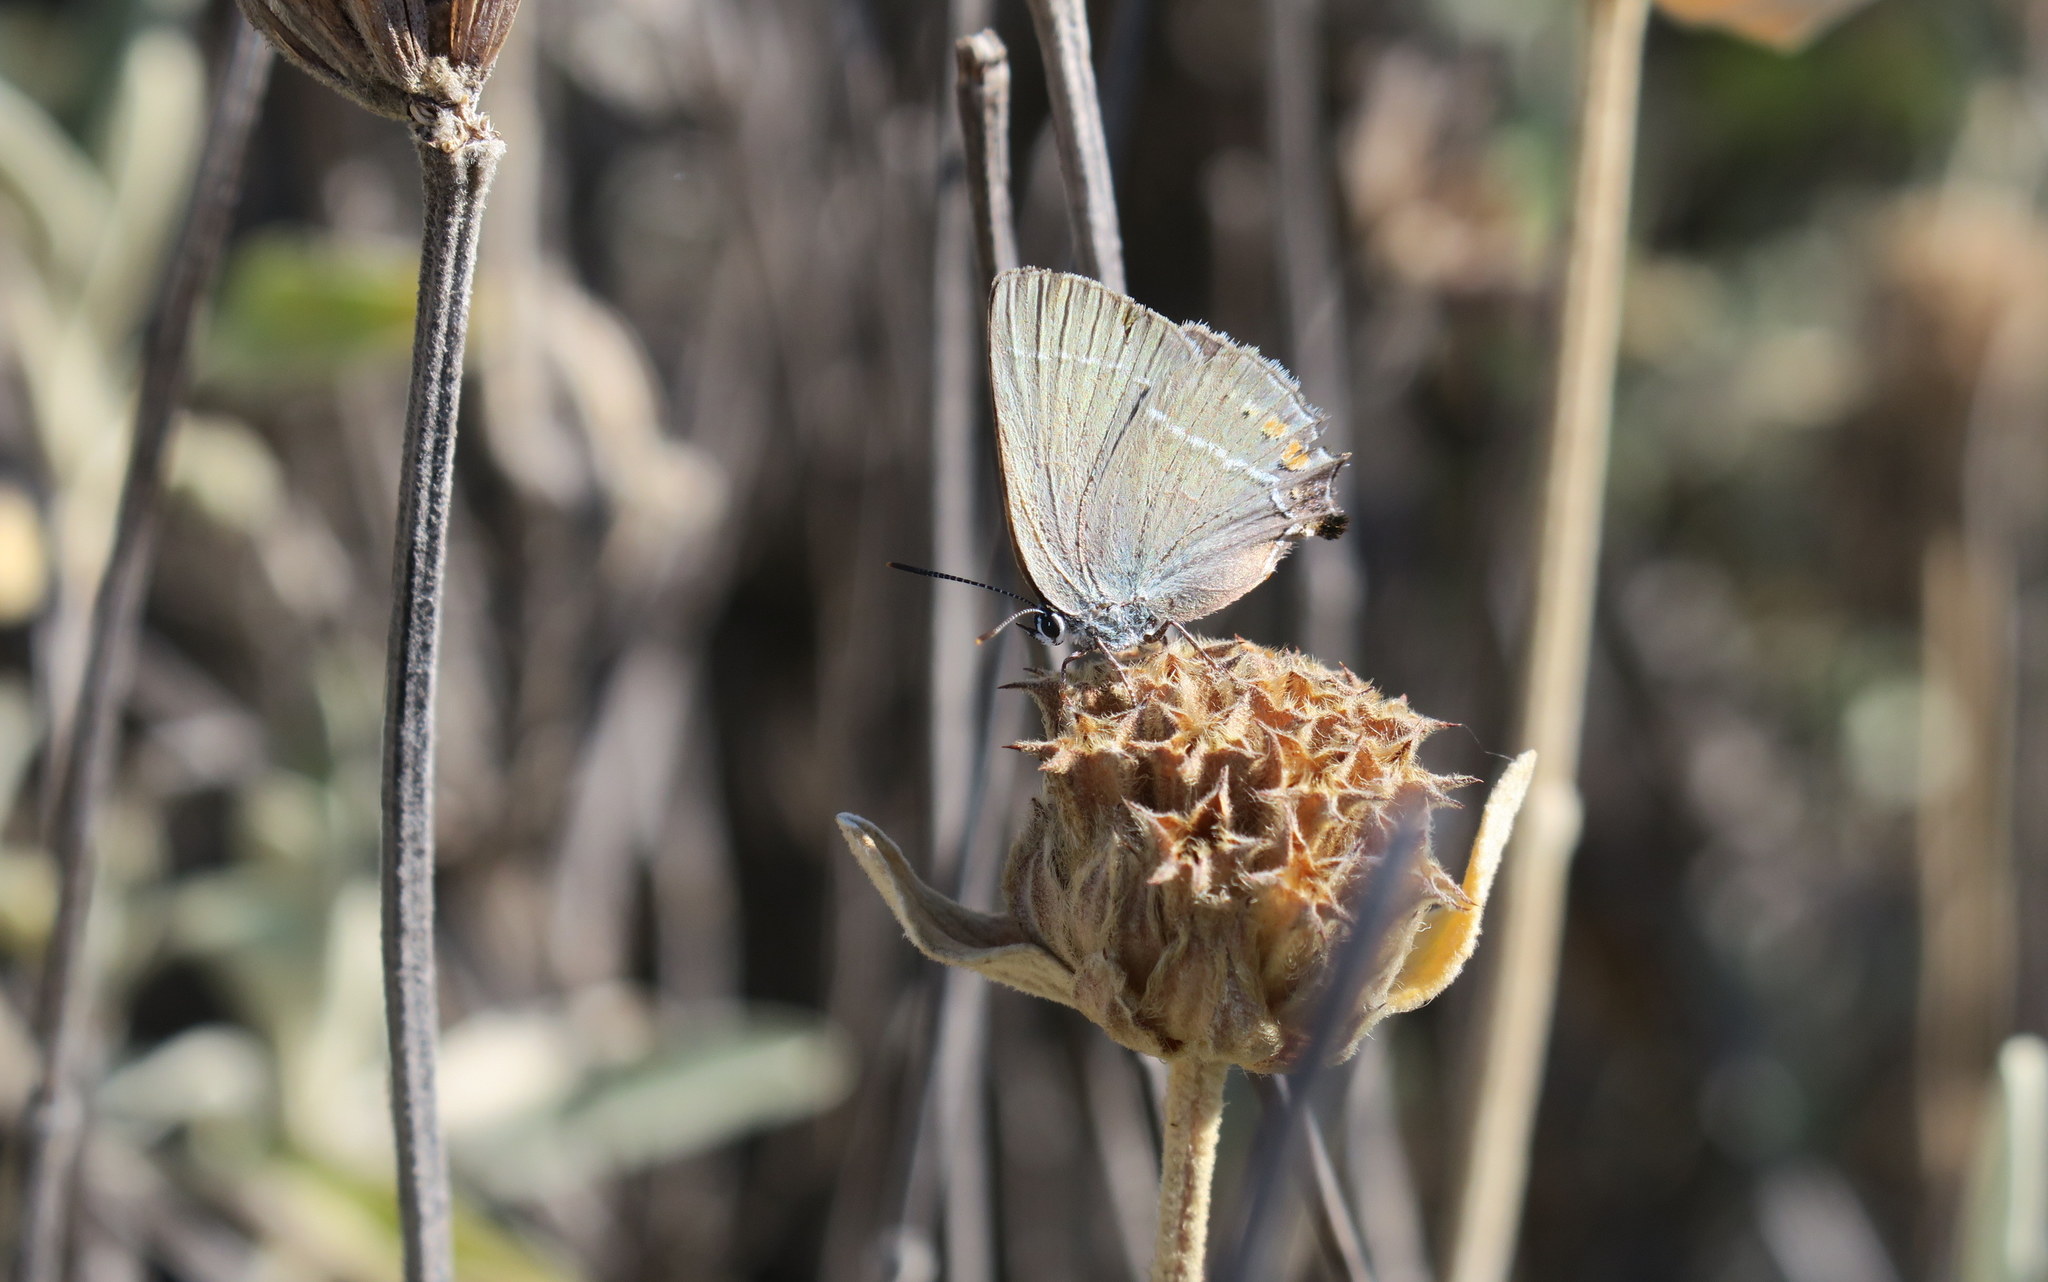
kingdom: Animalia
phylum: Arthropoda
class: Insecta
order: Lepidoptera
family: Lycaenidae
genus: Tuttiola
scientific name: Tuttiola spini
